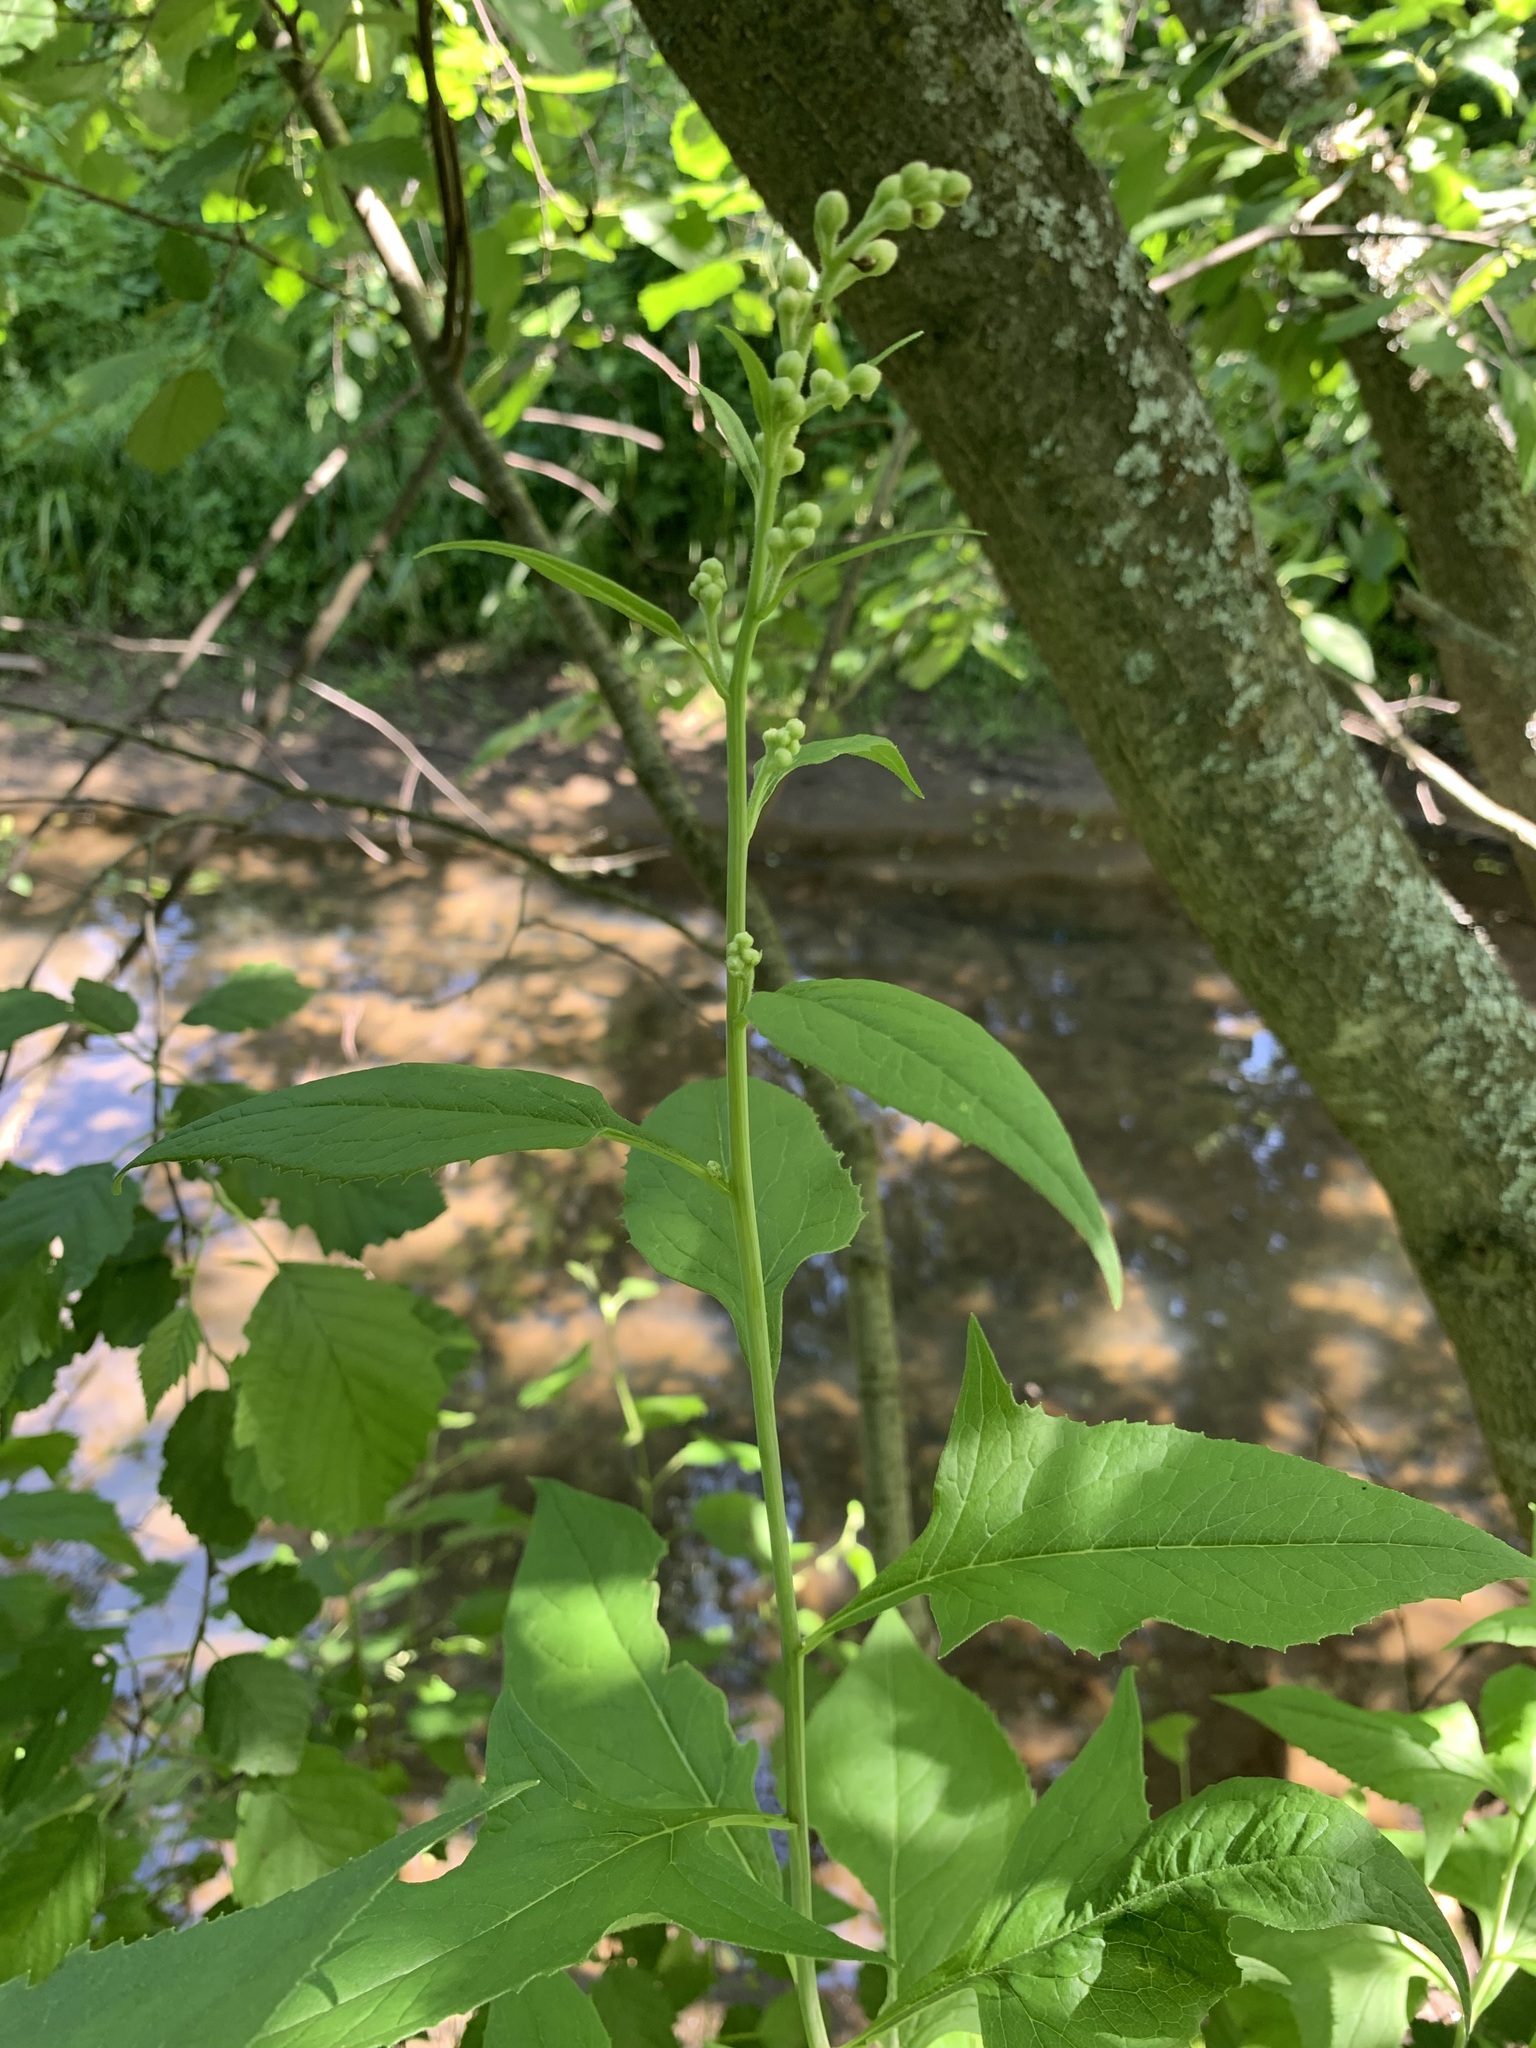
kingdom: Plantae
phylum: Tracheophyta
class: Magnoliopsida
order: Asterales
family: Asteraceae
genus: Parasenecio
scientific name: Parasenecio hastatus
